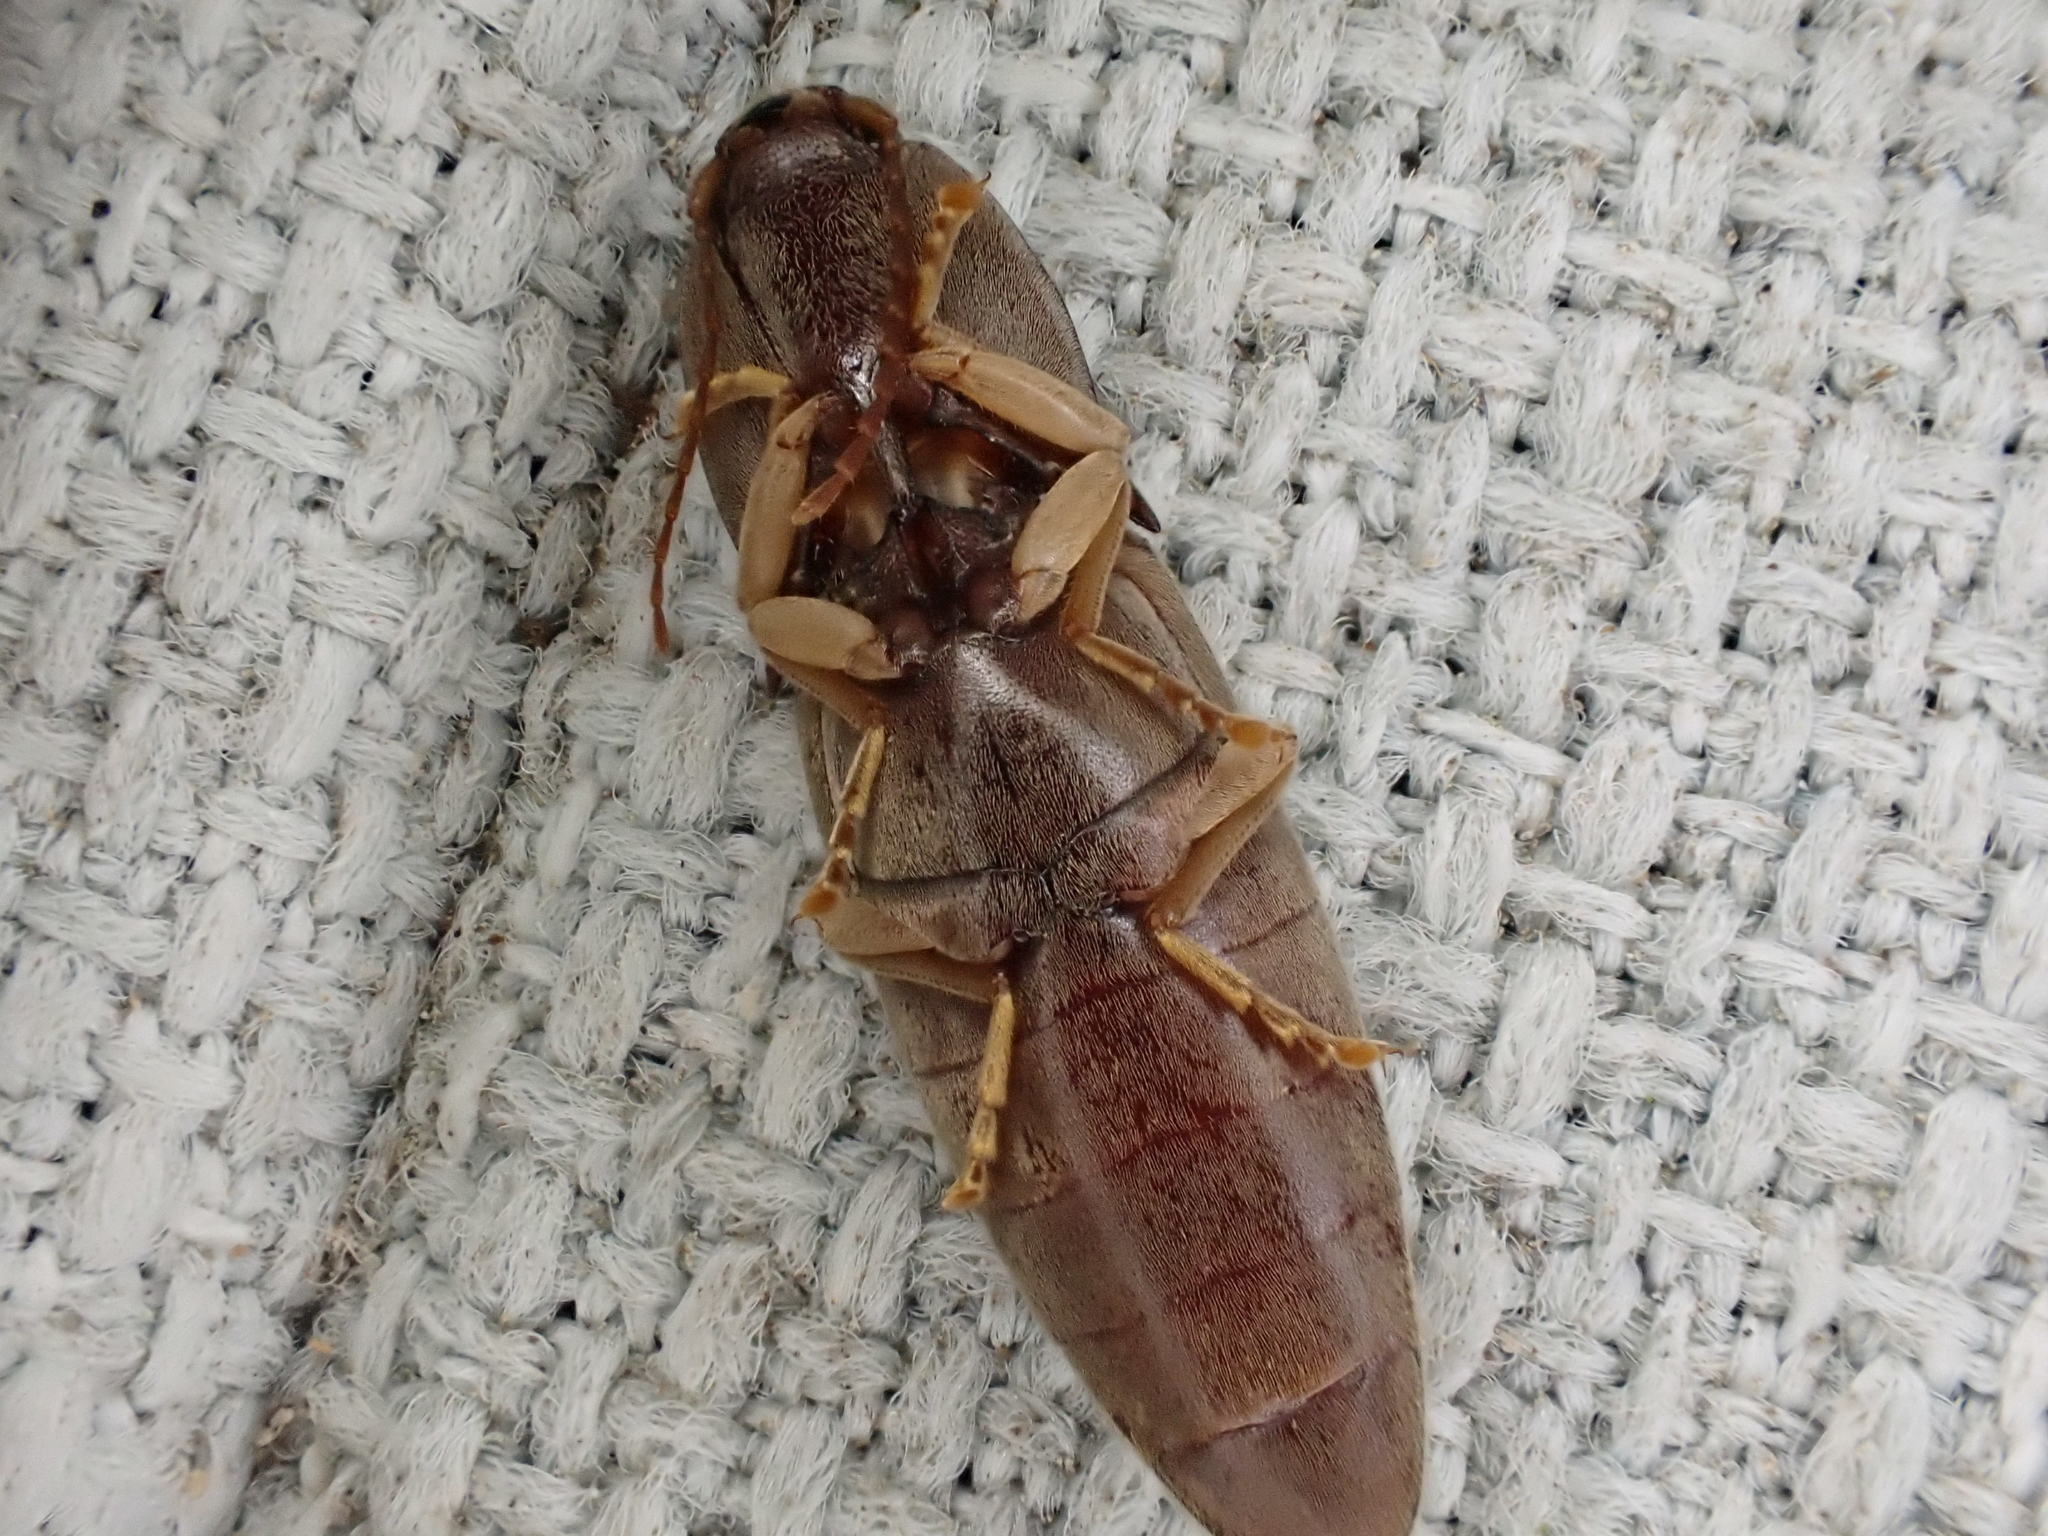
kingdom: Animalia
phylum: Arthropoda
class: Insecta
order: Coleoptera
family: Elateridae
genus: Monocrepidius
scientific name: Monocrepidius lividus
